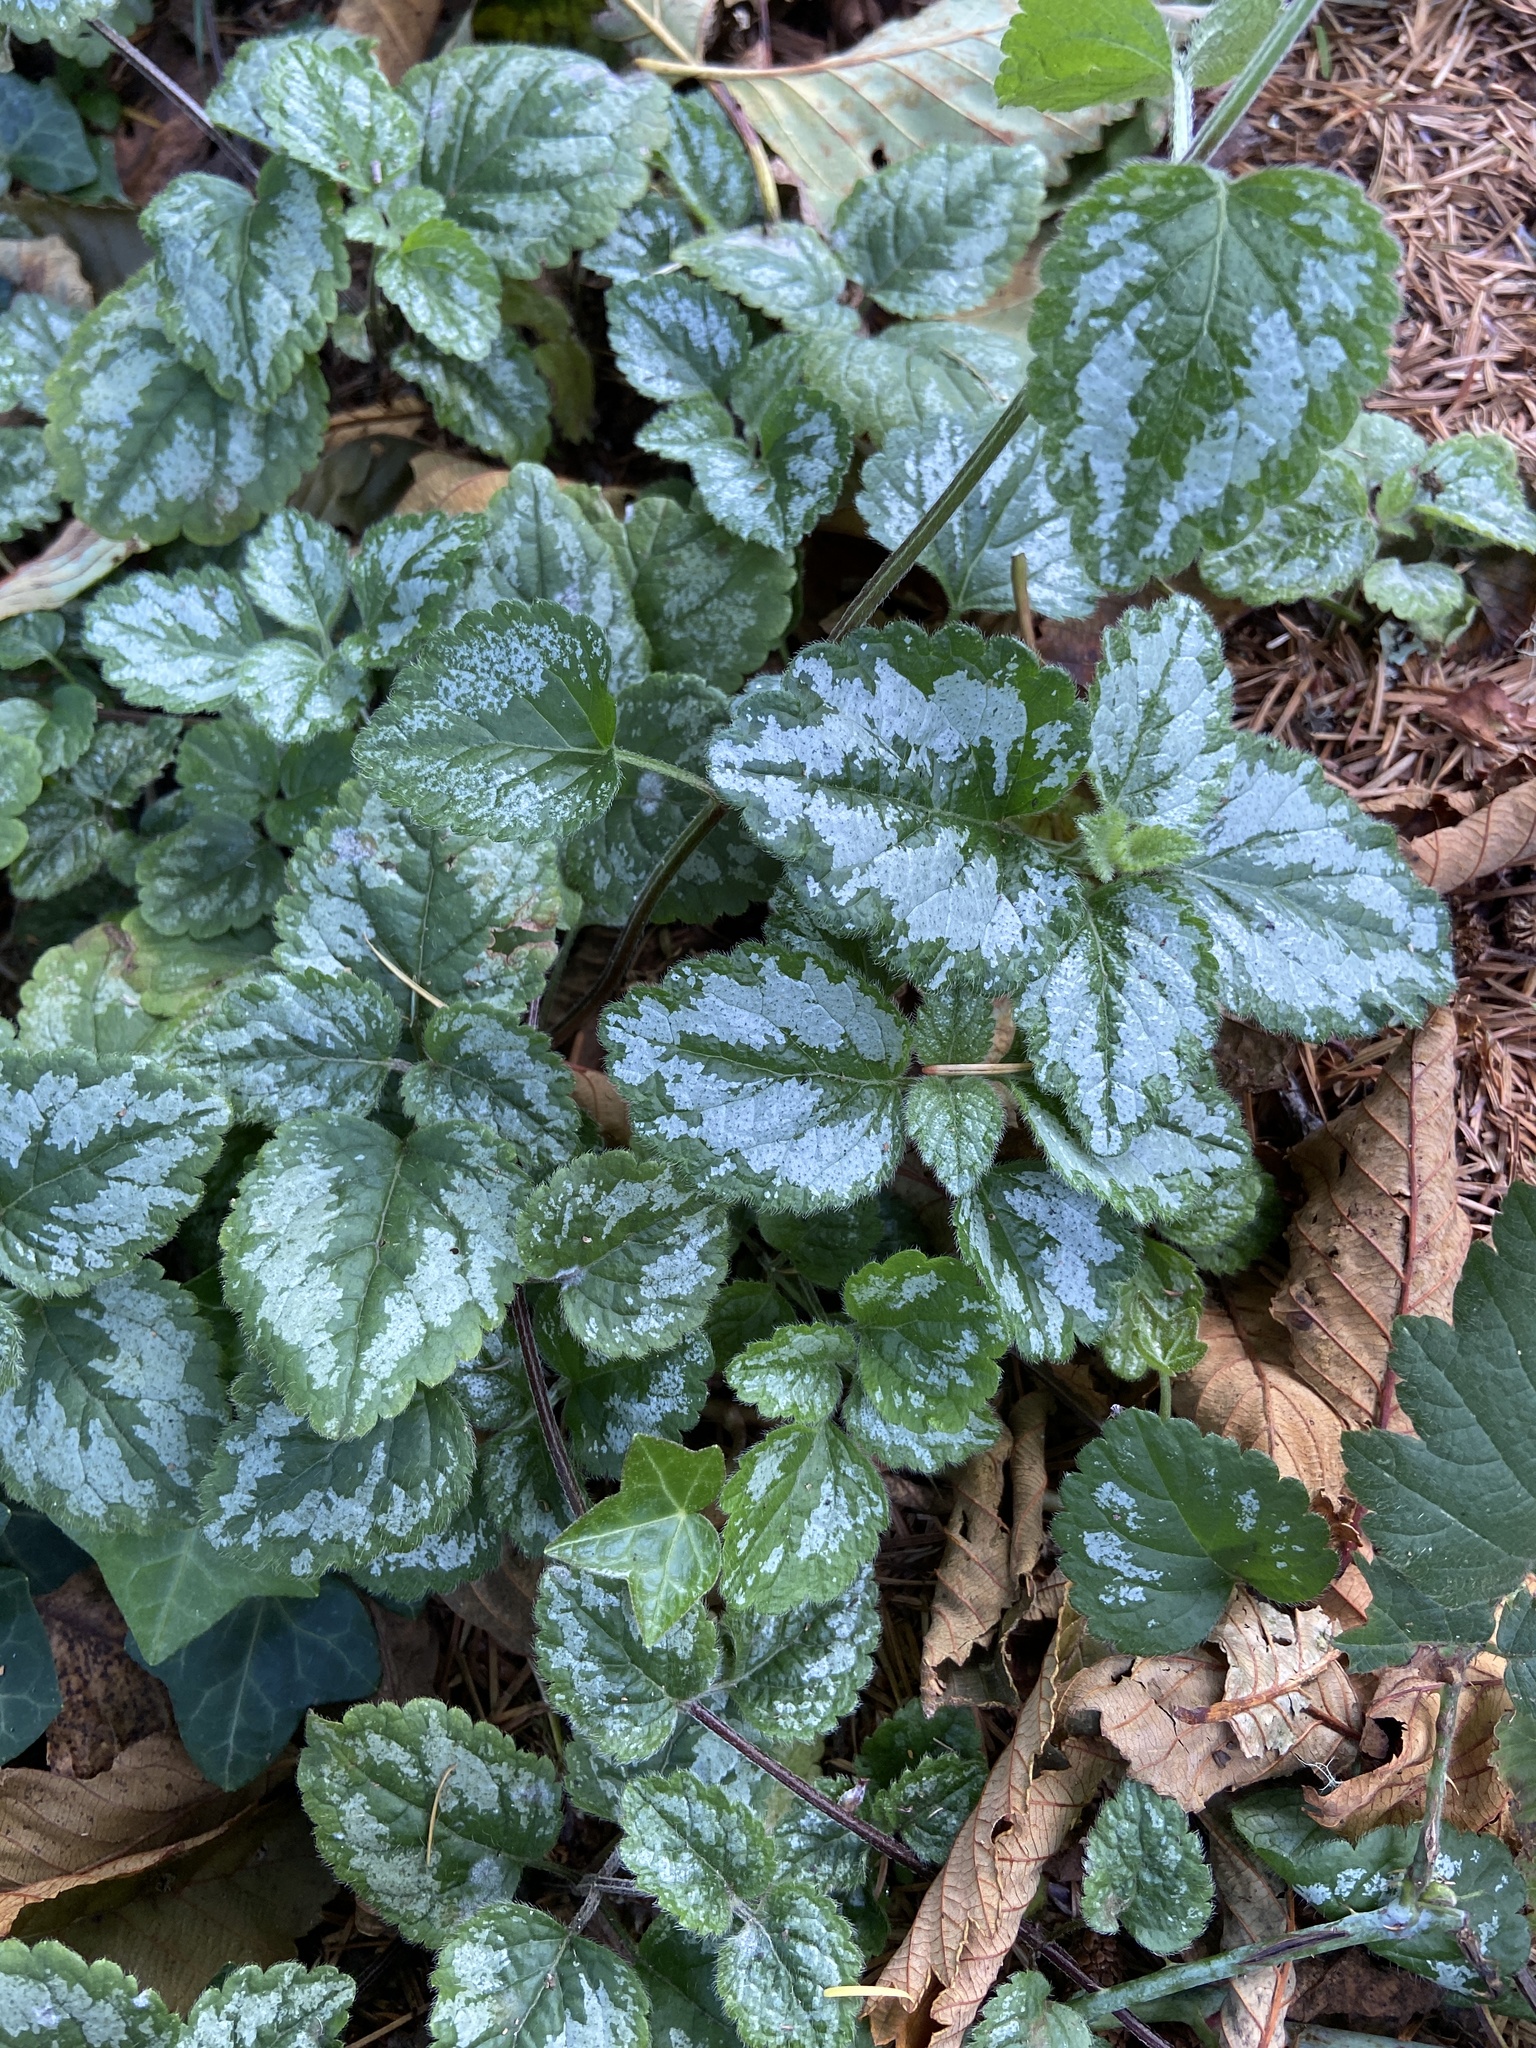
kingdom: Plantae
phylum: Tracheophyta
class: Magnoliopsida
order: Lamiales
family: Lamiaceae
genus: Lamium
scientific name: Lamium galeobdolon
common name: Yellow archangel
